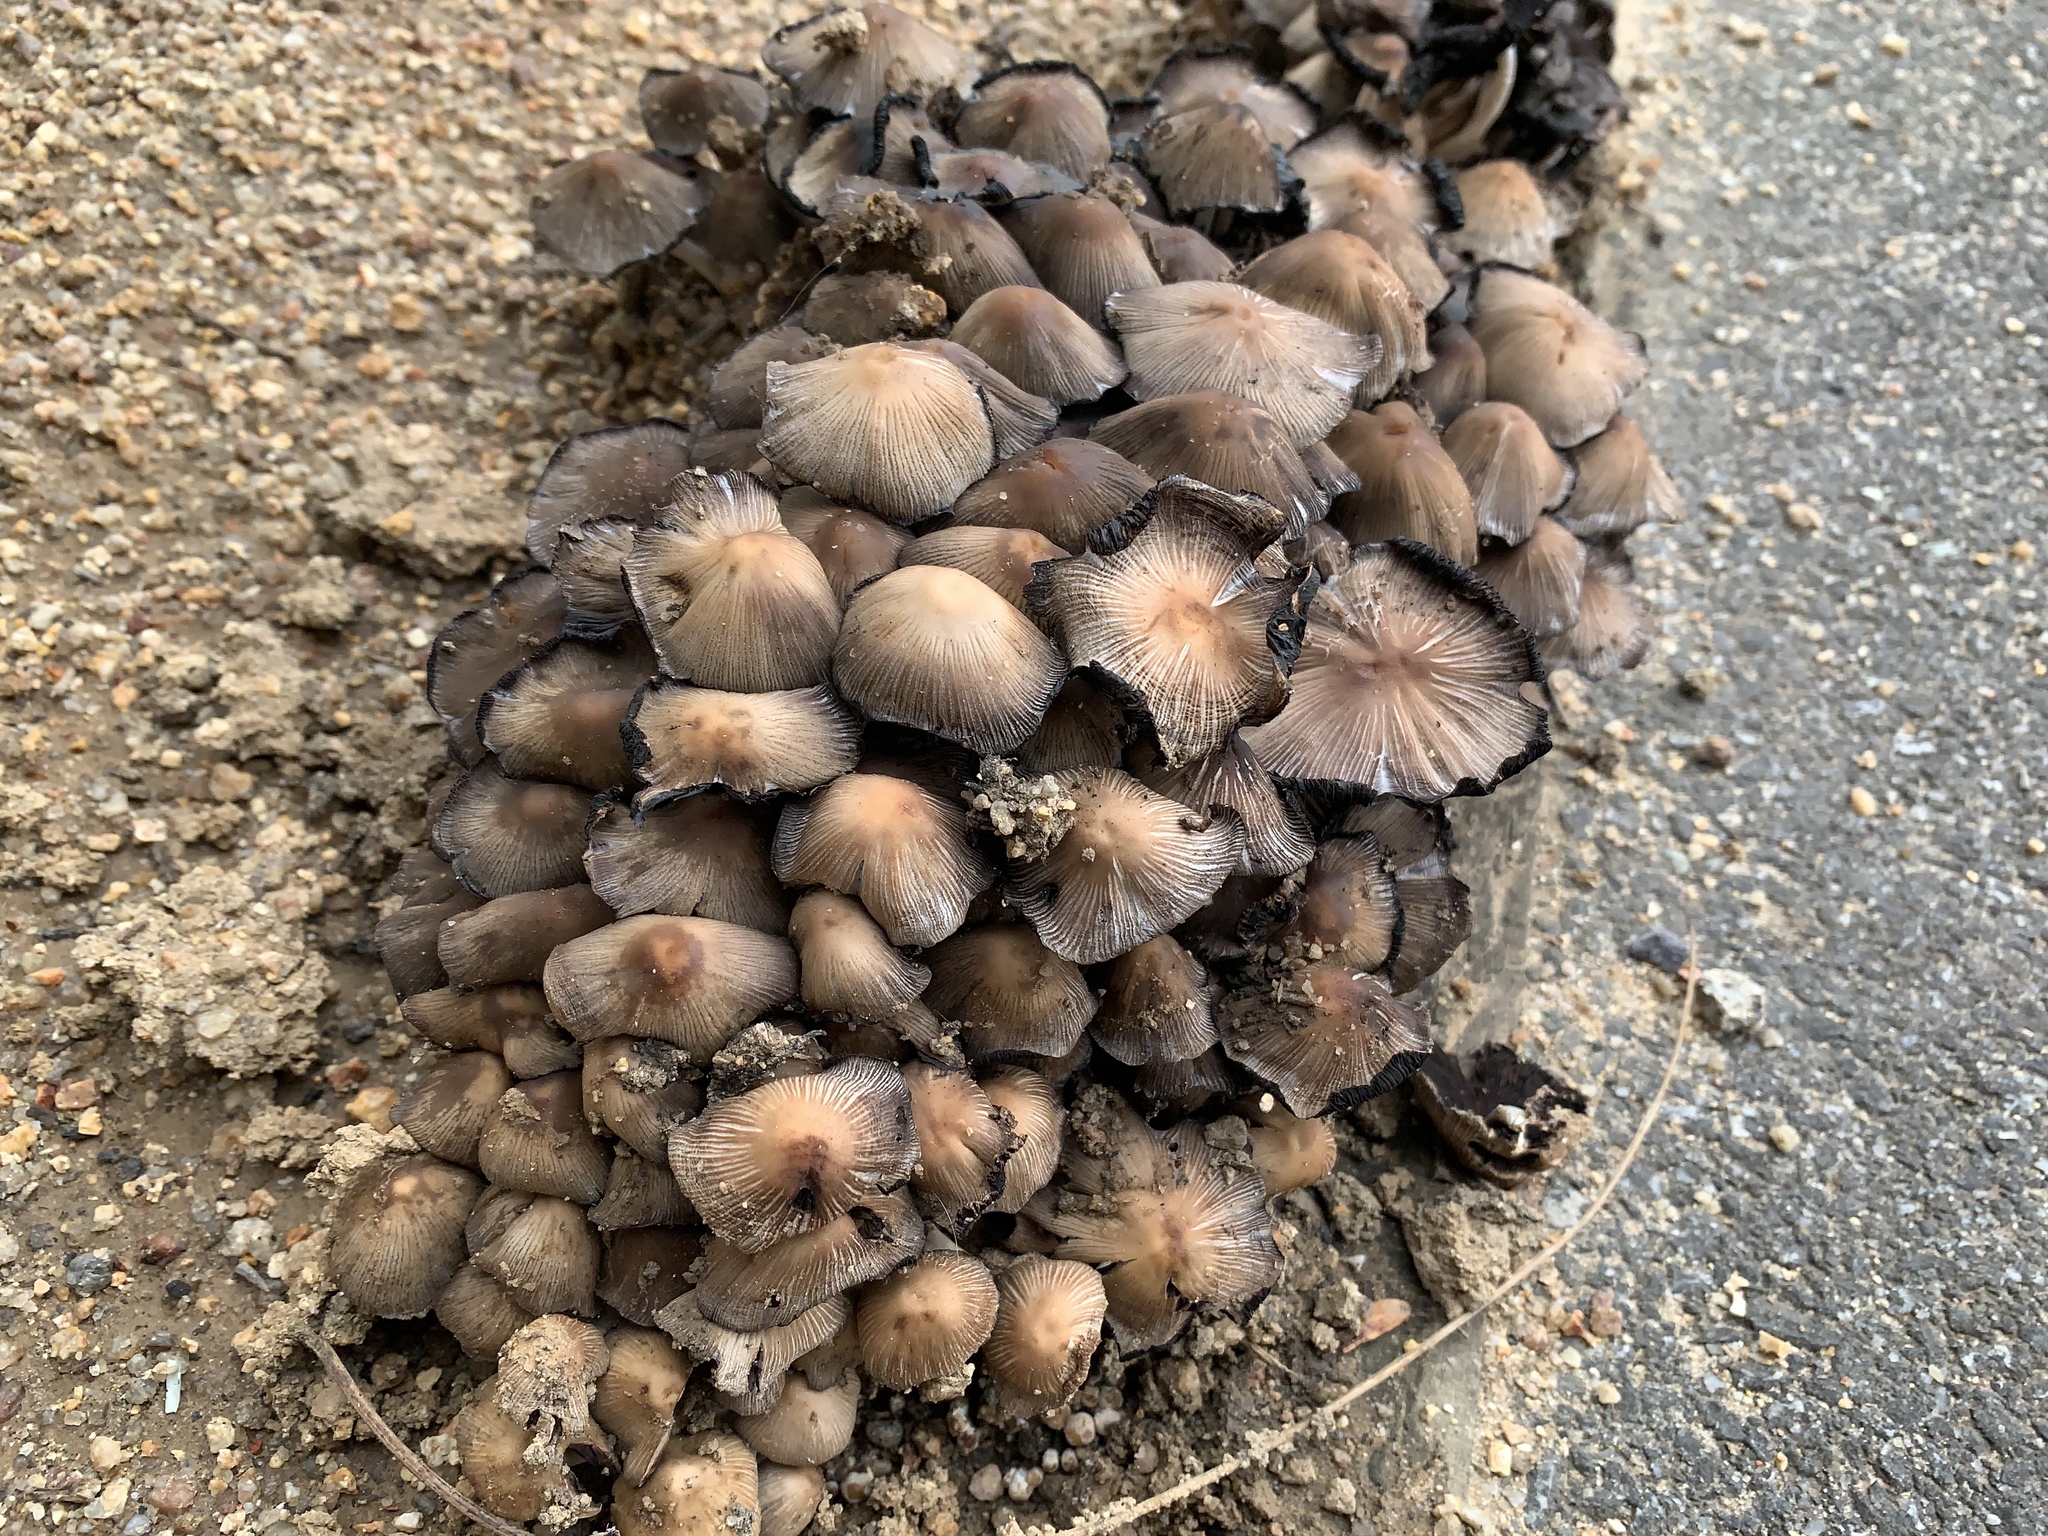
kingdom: Fungi
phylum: Basidiomycota
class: Agaricomycetes
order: Agaricales
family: Psathyrellaceae
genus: Coprinopsis
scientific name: Coprinopsis atramentaria
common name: Common ink-cap
